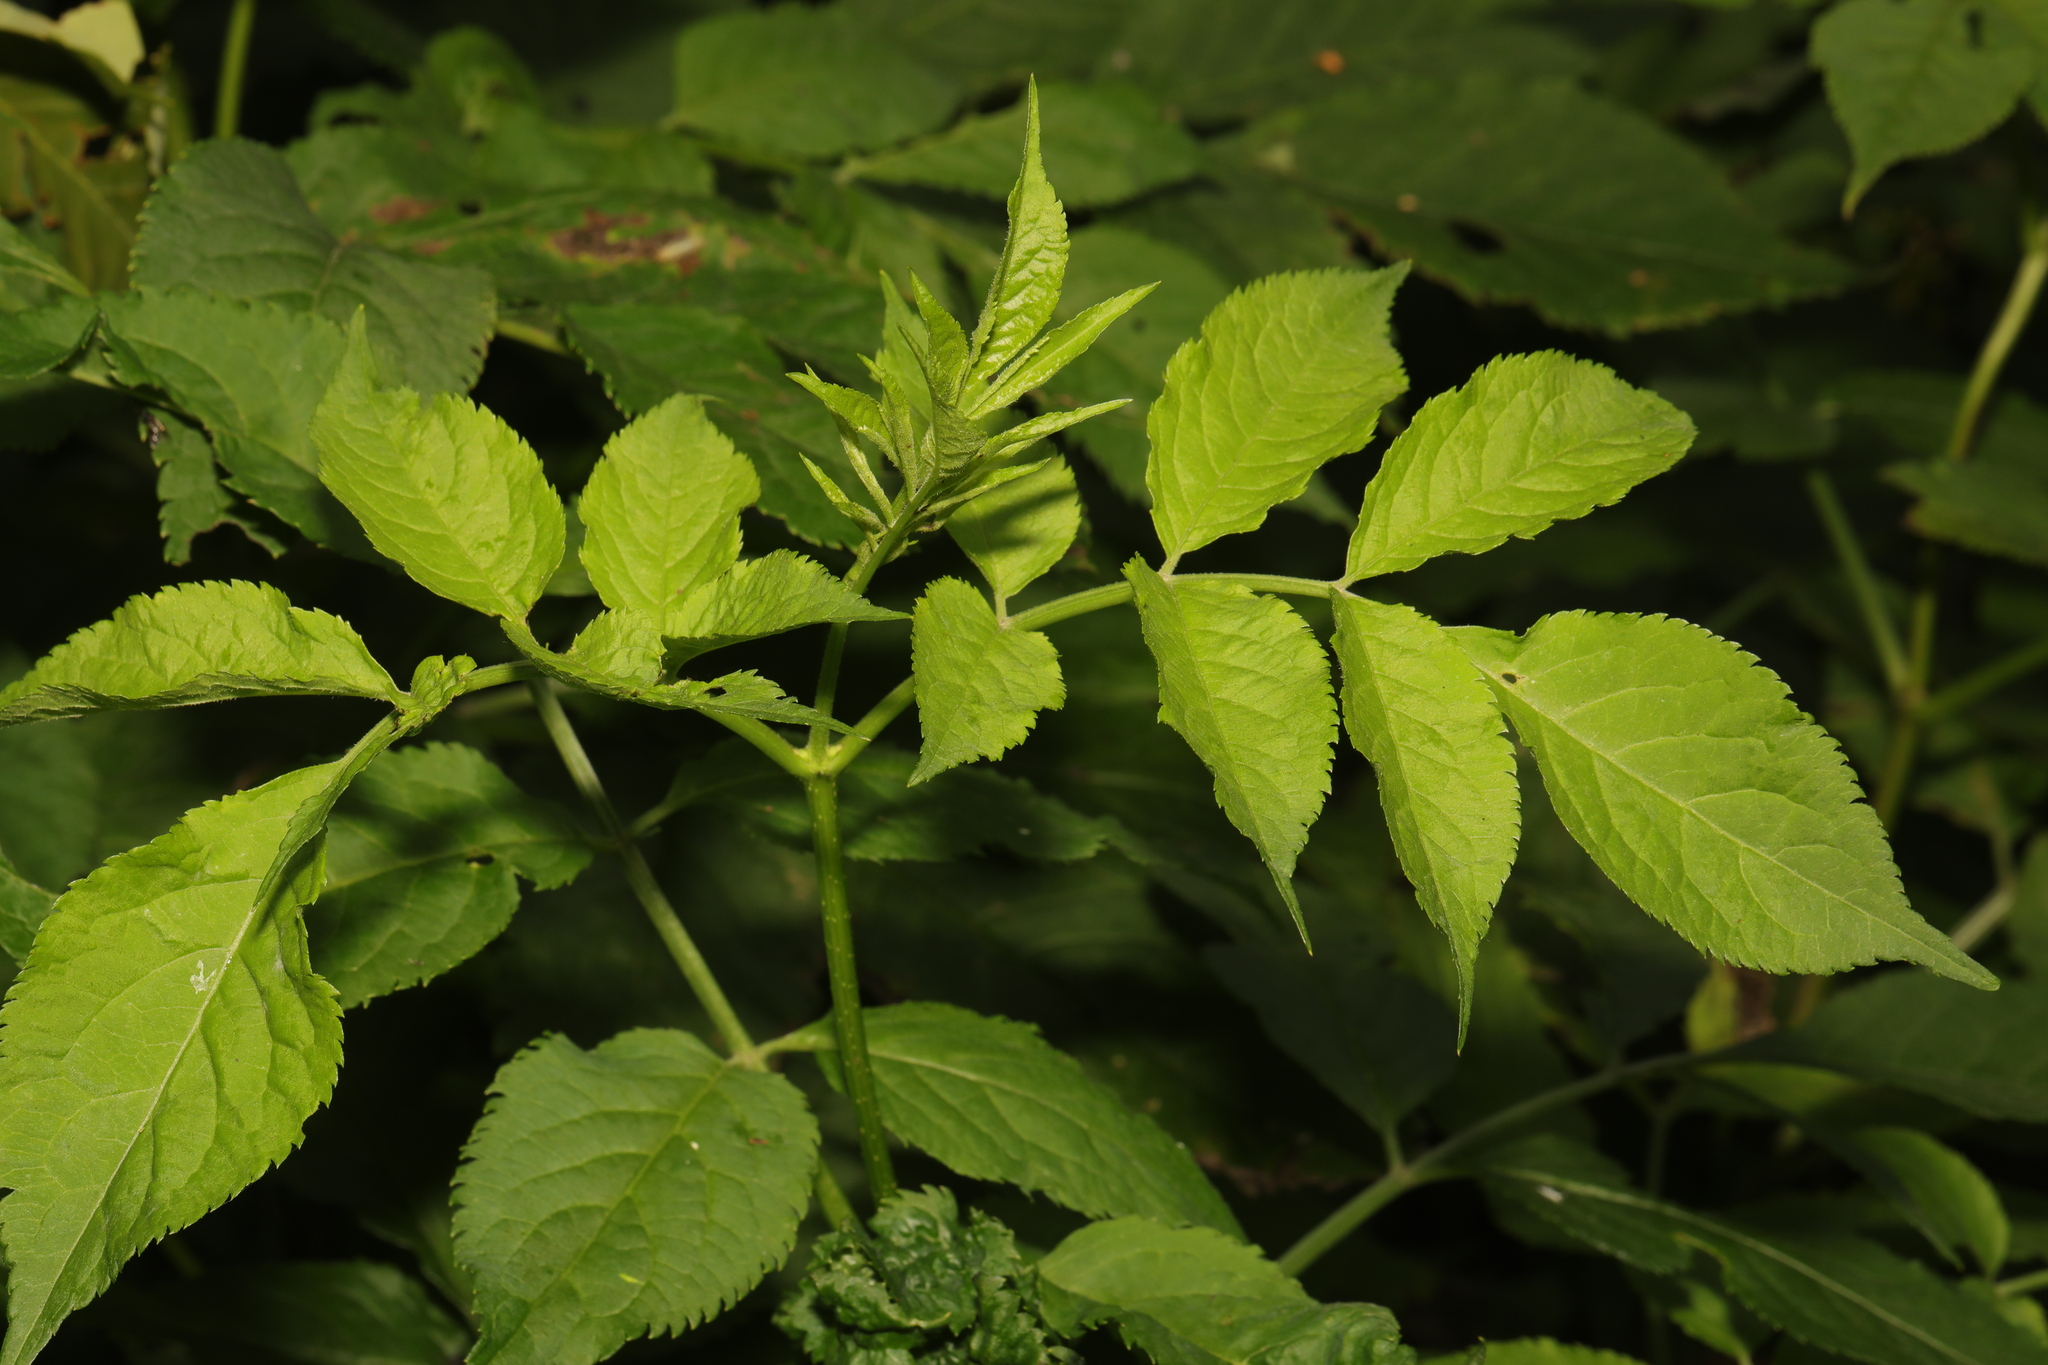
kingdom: Plantae
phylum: Tracheophyta
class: Magnoliopsida
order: Dipsacales
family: Viburnaceae
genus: Sambucus
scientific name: Sambucus nigra
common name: Elder
